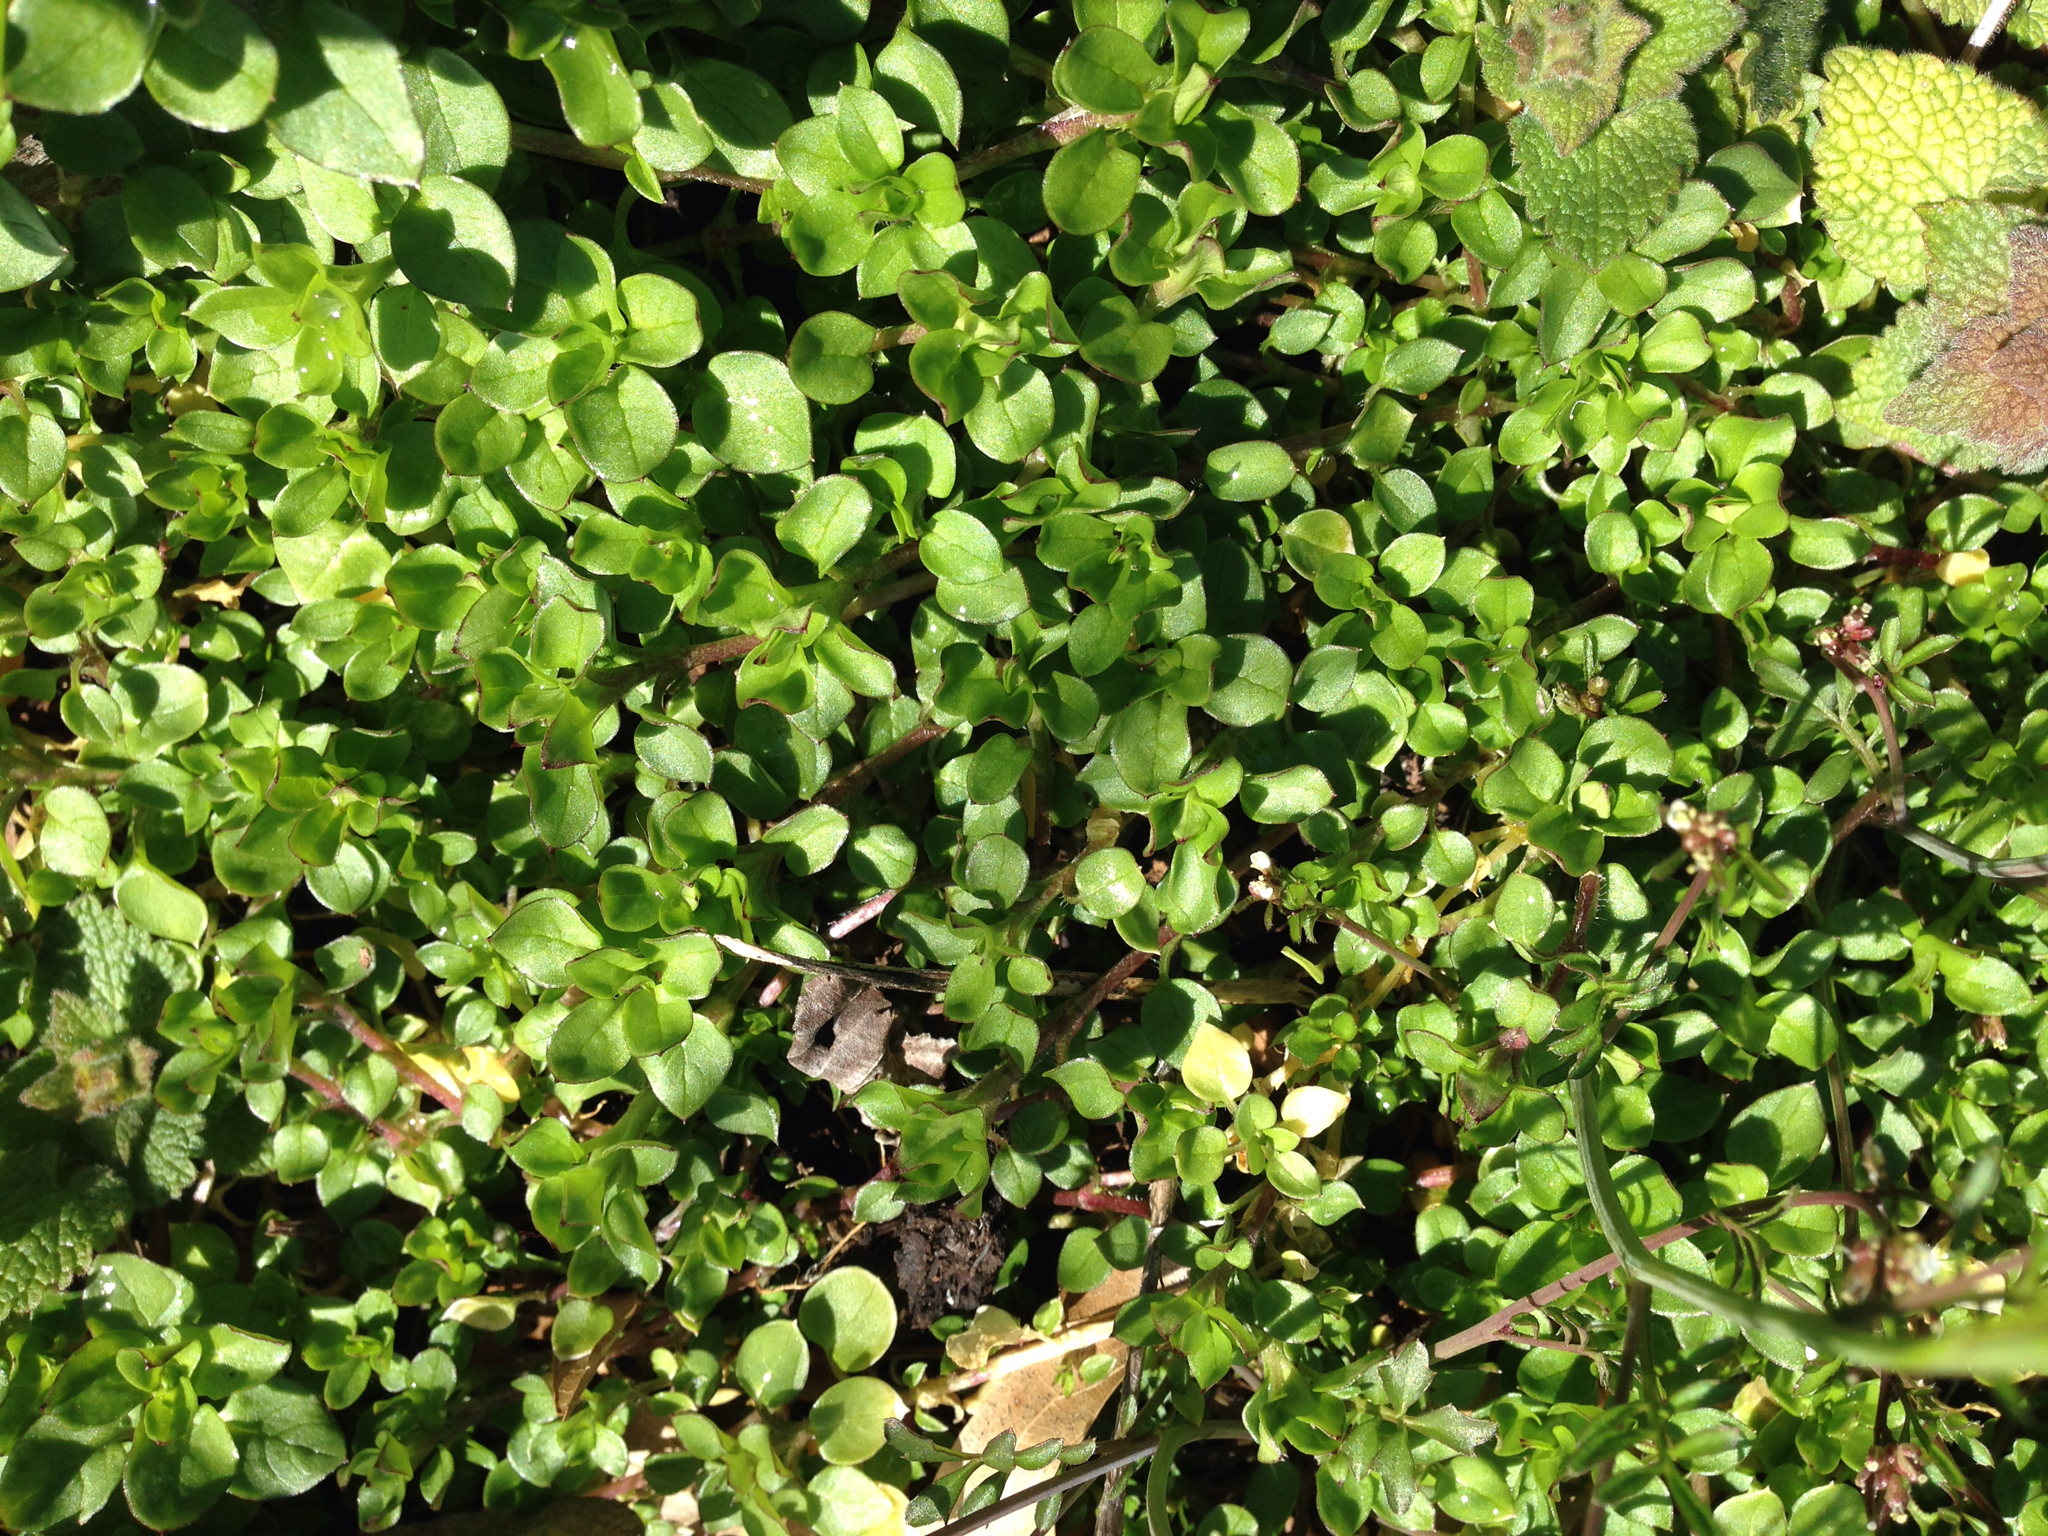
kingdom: Plantae
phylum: Tracheophyta
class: Magnoliopsida
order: Caryophyllales
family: Caryophyllaceae
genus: Stellaria
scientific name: Stellaria media
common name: Common chickweed
